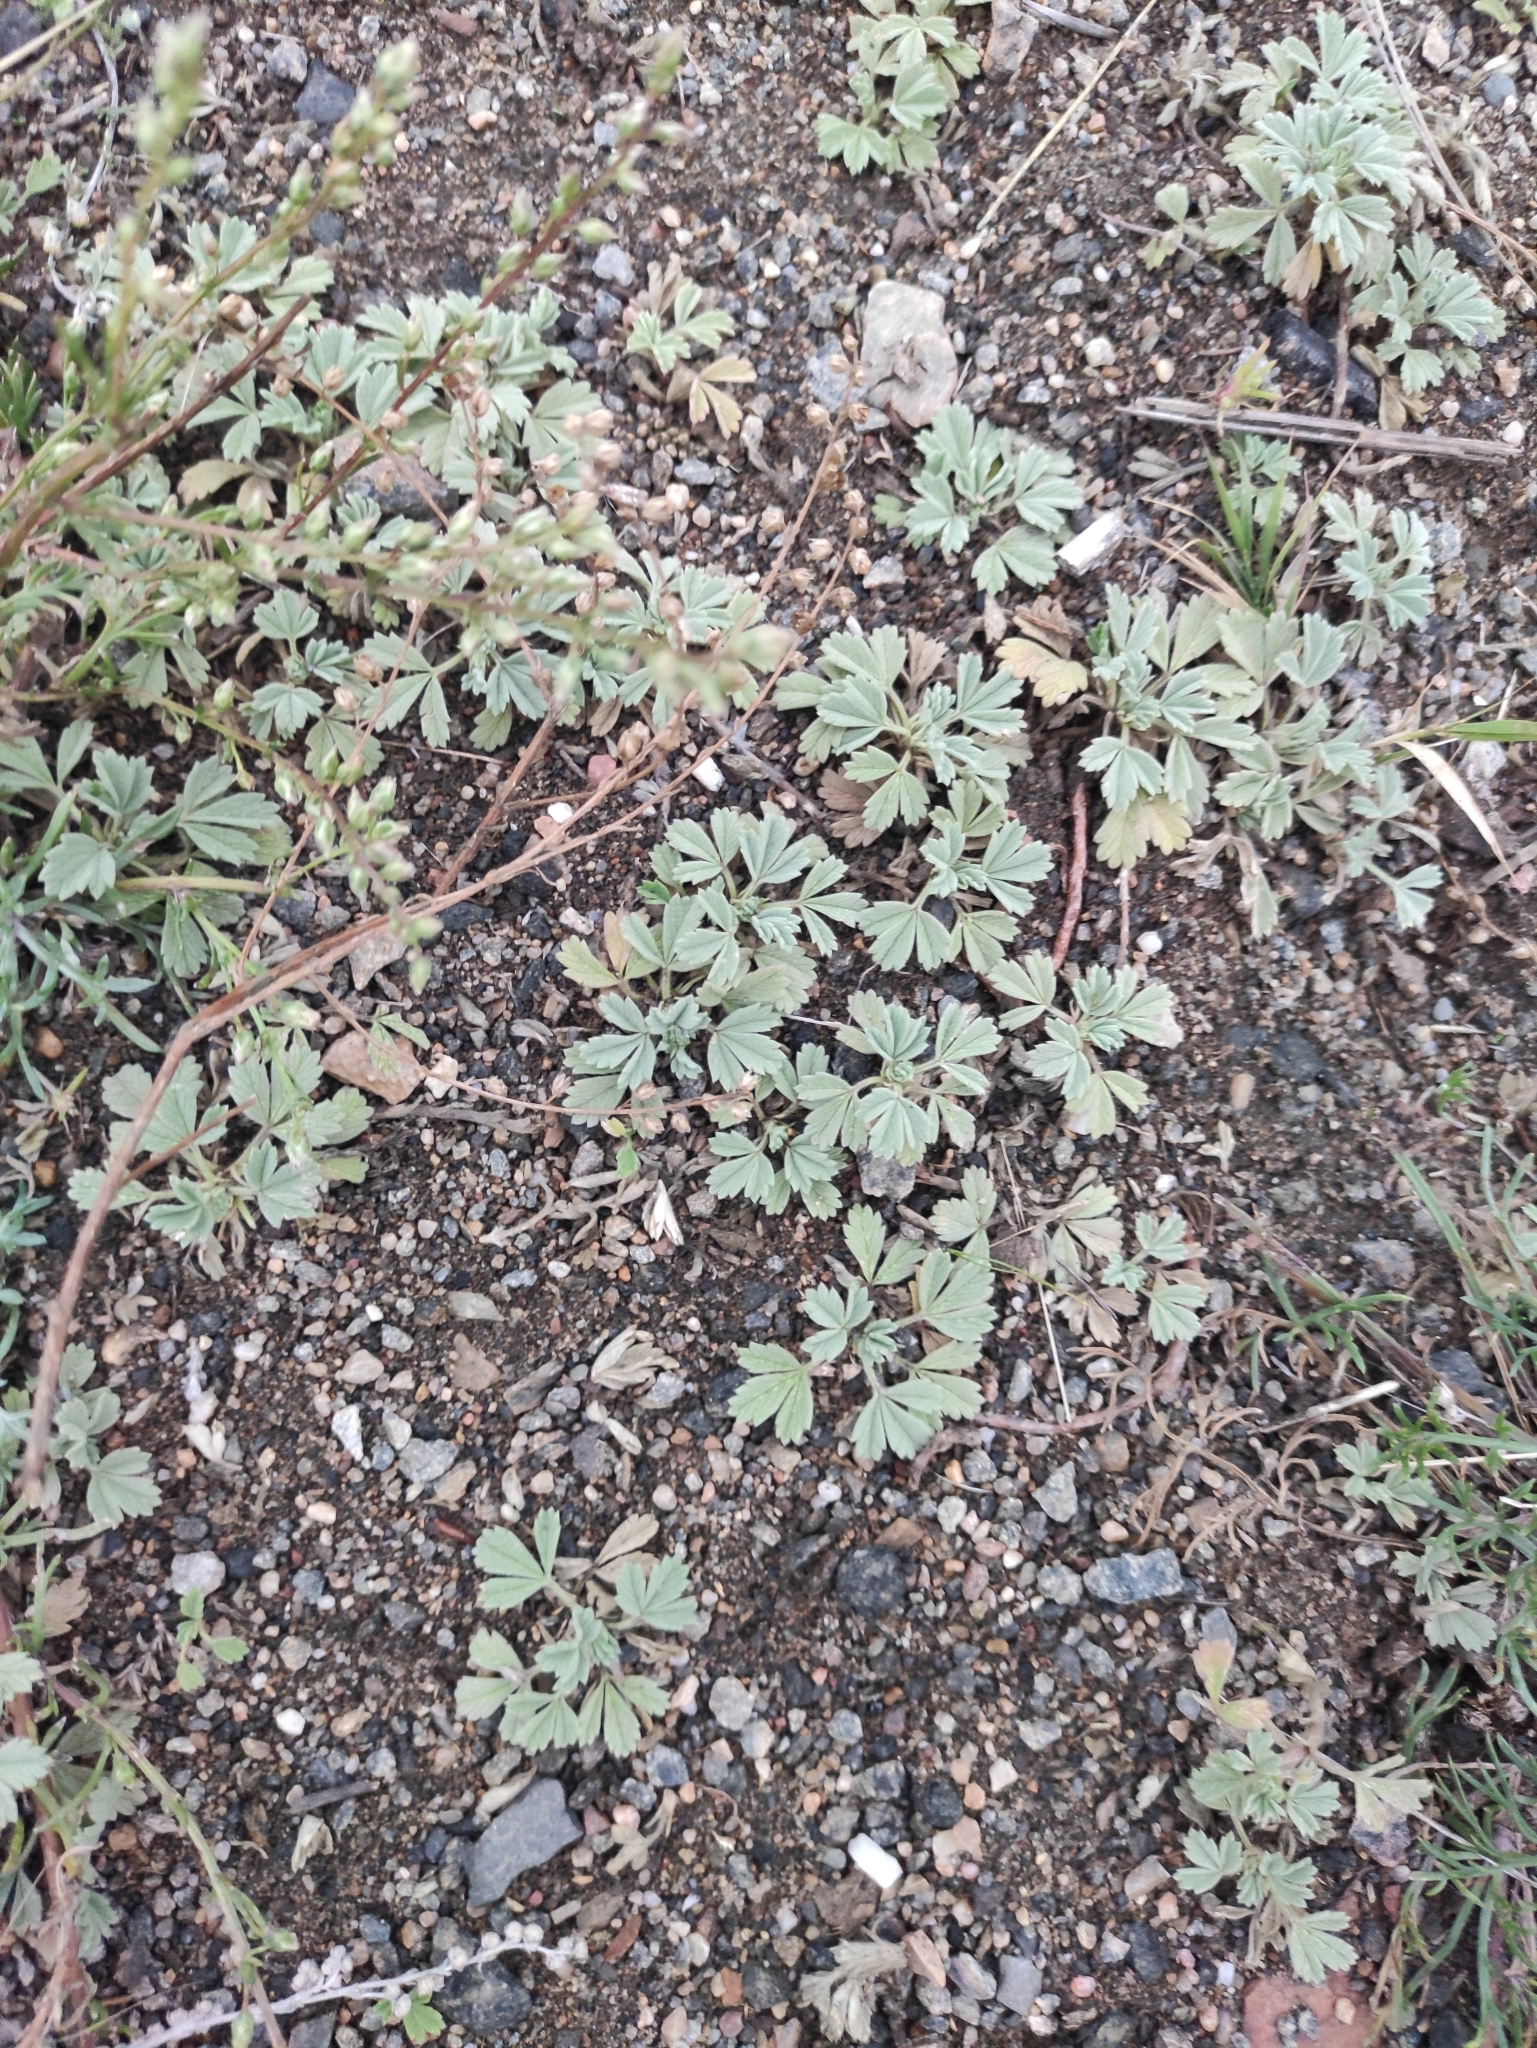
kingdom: Plantae
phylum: Tracheophyta
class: Magnoliopsida
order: Rosales
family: Rosaceae
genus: Potentilla
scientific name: Potentilla acaulis
